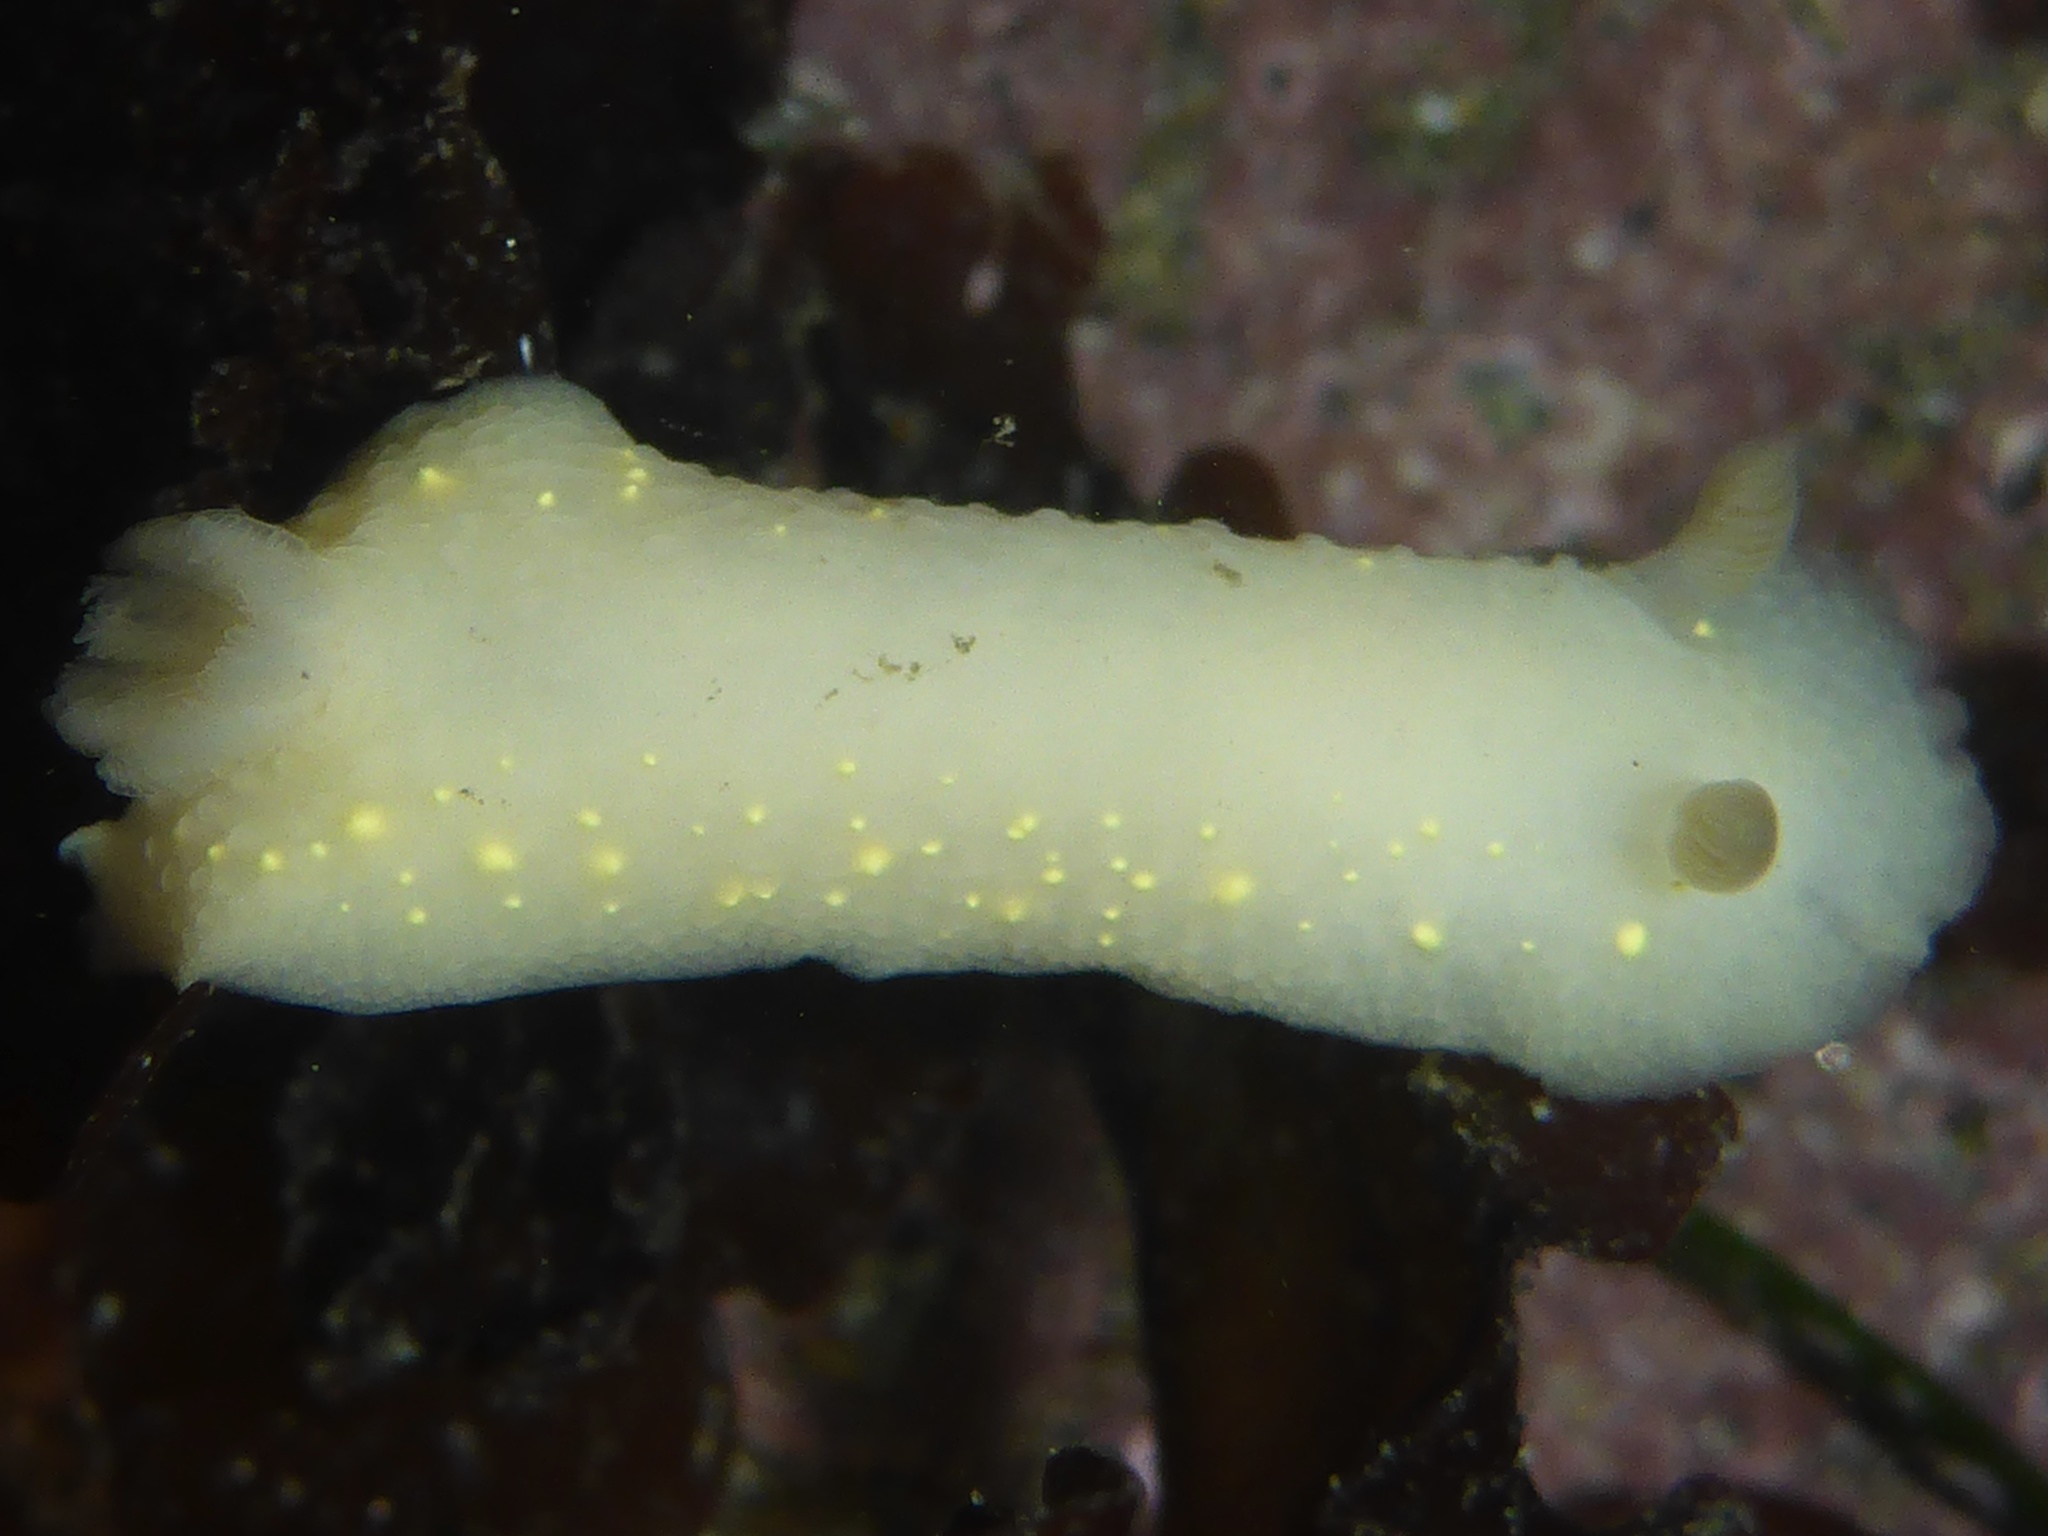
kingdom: Animalia
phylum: Mollusca
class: Gastropoda
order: Nudibranchia
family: Cadlinidae
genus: Cadlina
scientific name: Cadlina modesta
